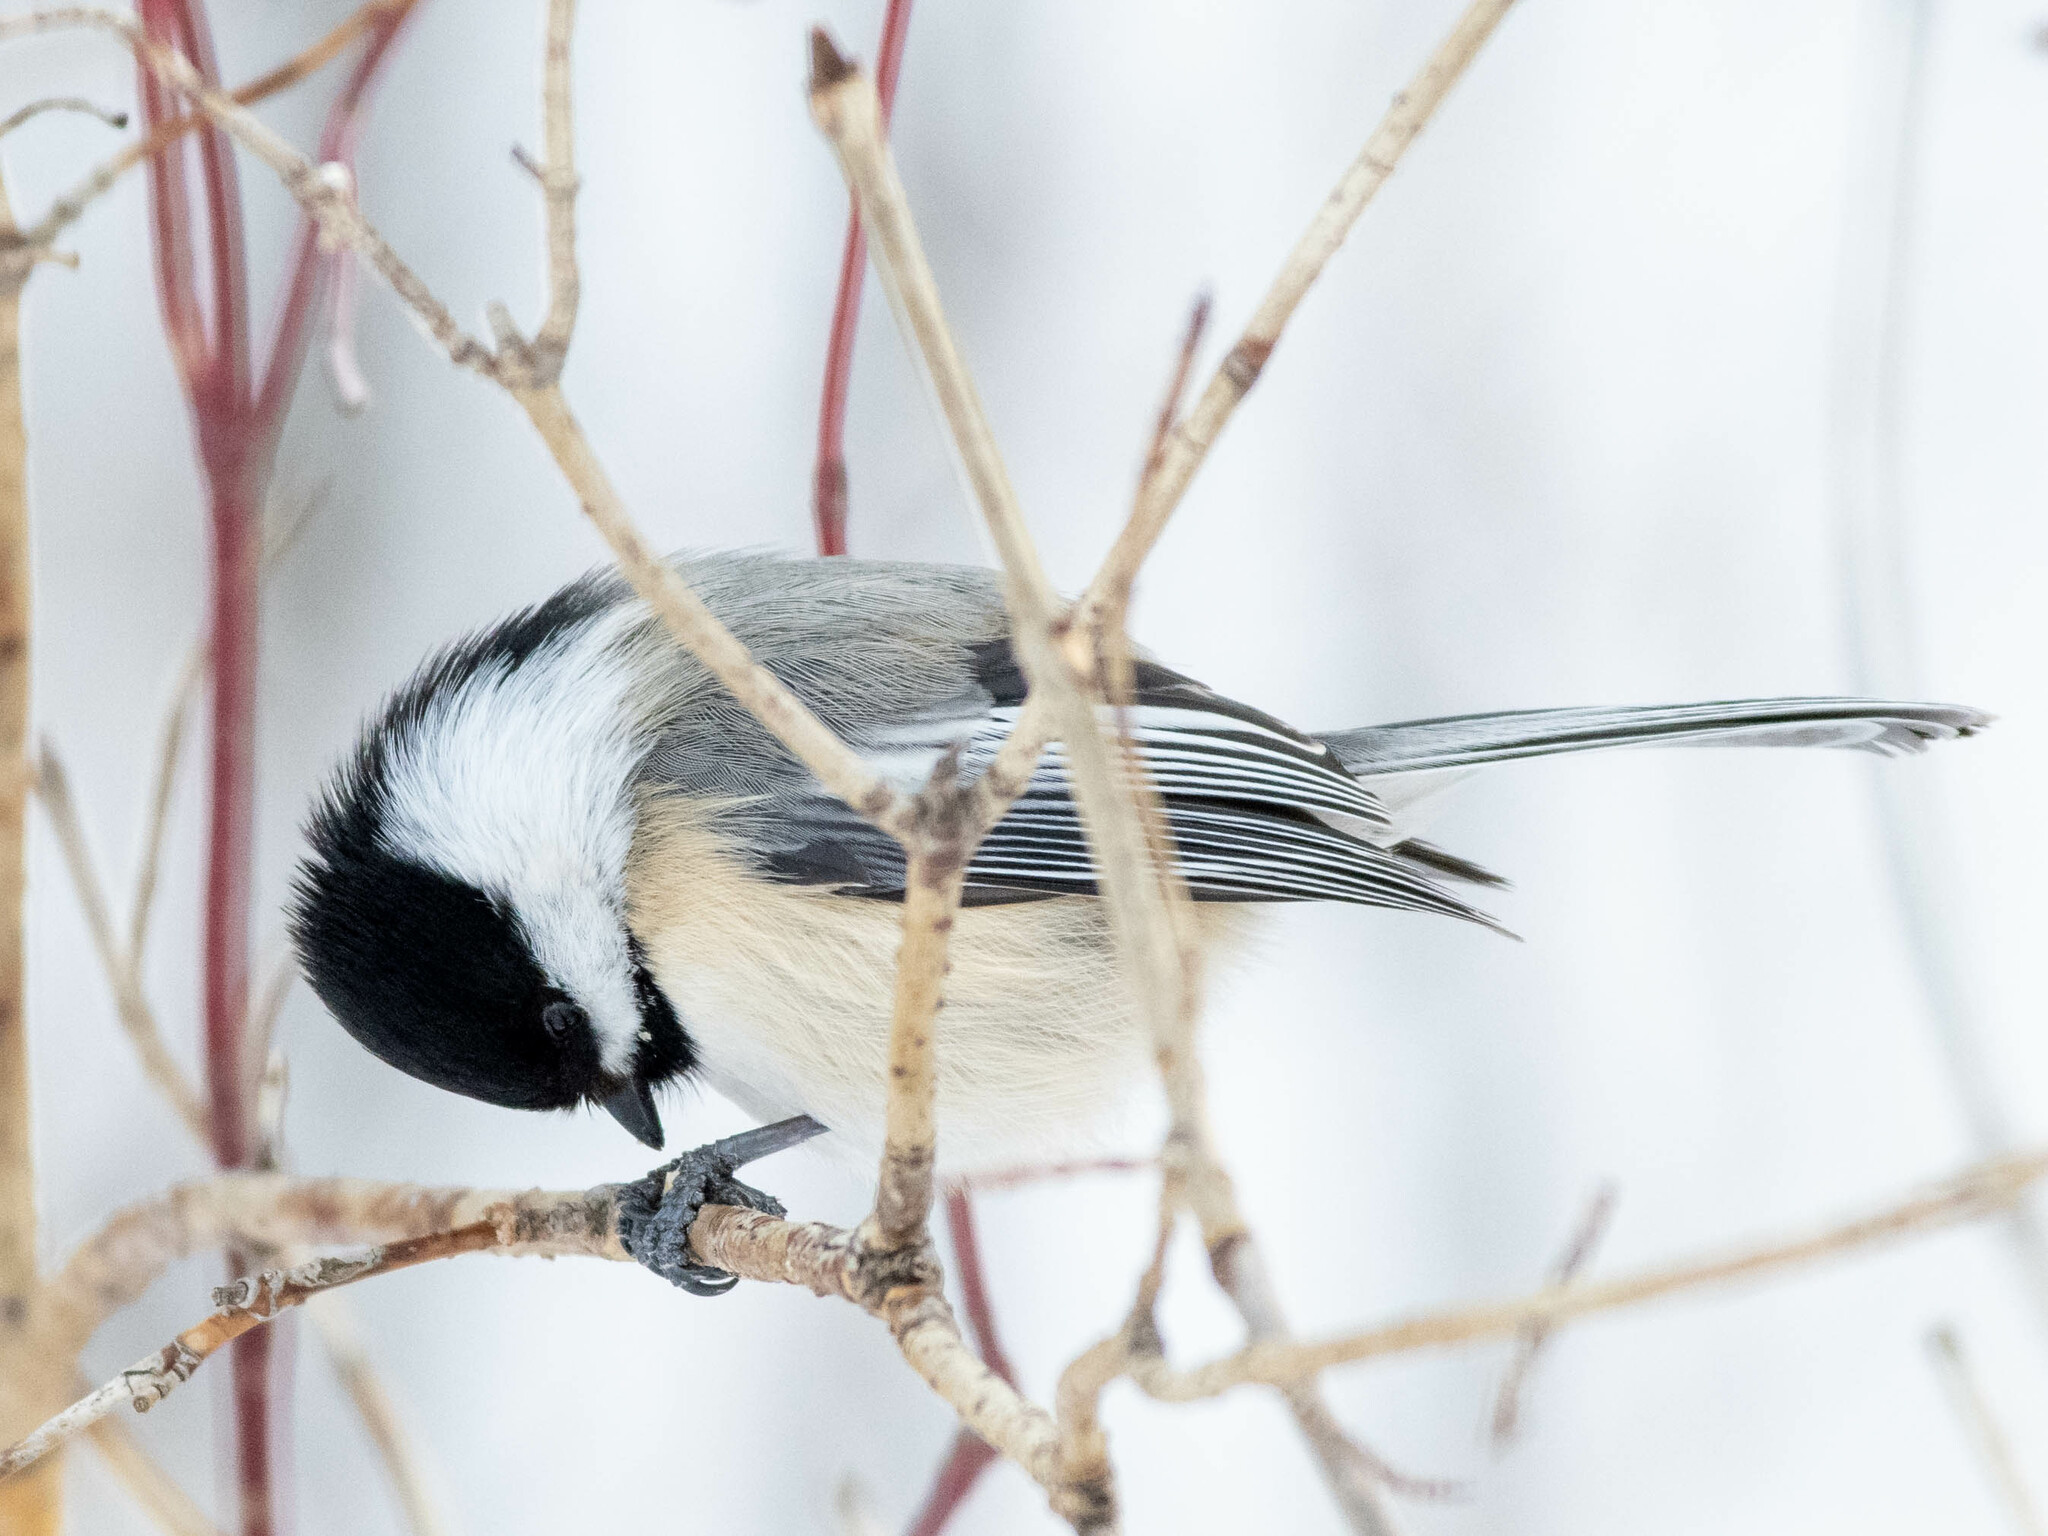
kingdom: Animalia
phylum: Chordata
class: Aves
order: Passeriformes
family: Paridae
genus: Poecile
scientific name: Poecile atricapillus
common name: Black-capped chickadee
